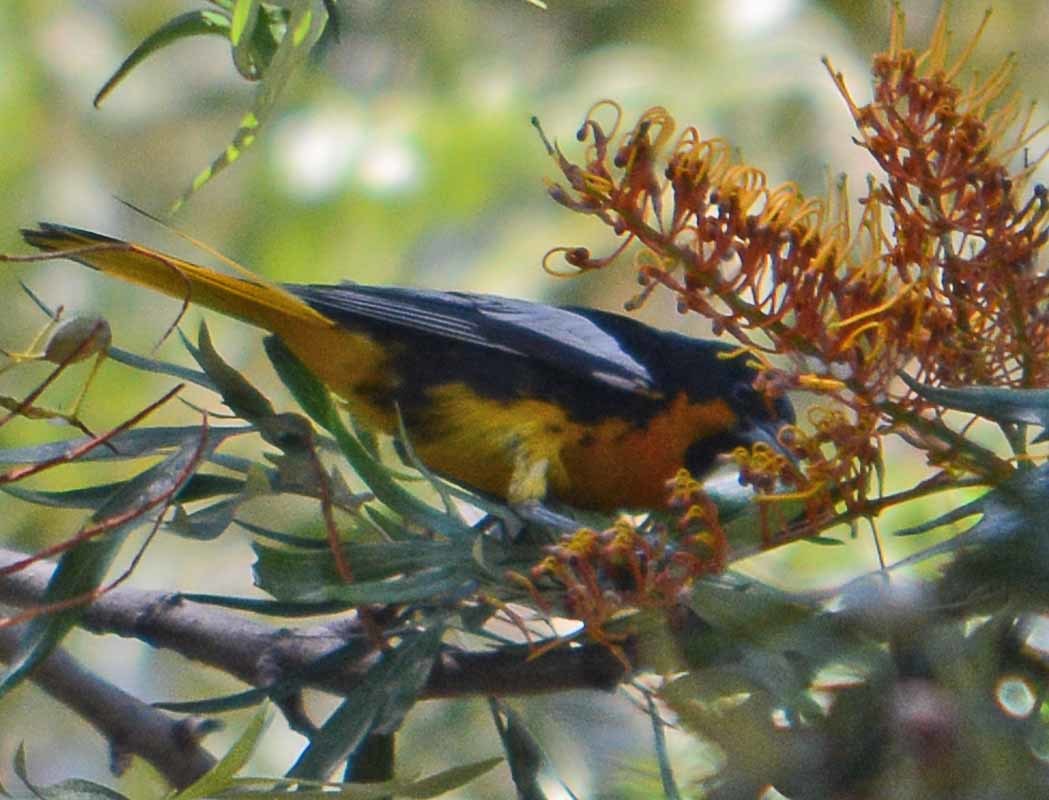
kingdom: Animalia
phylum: Chordata
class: Aves
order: Passeriformes
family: Icteridae
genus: Icterus
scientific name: Icterus abeillei
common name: Black-backed oriole
